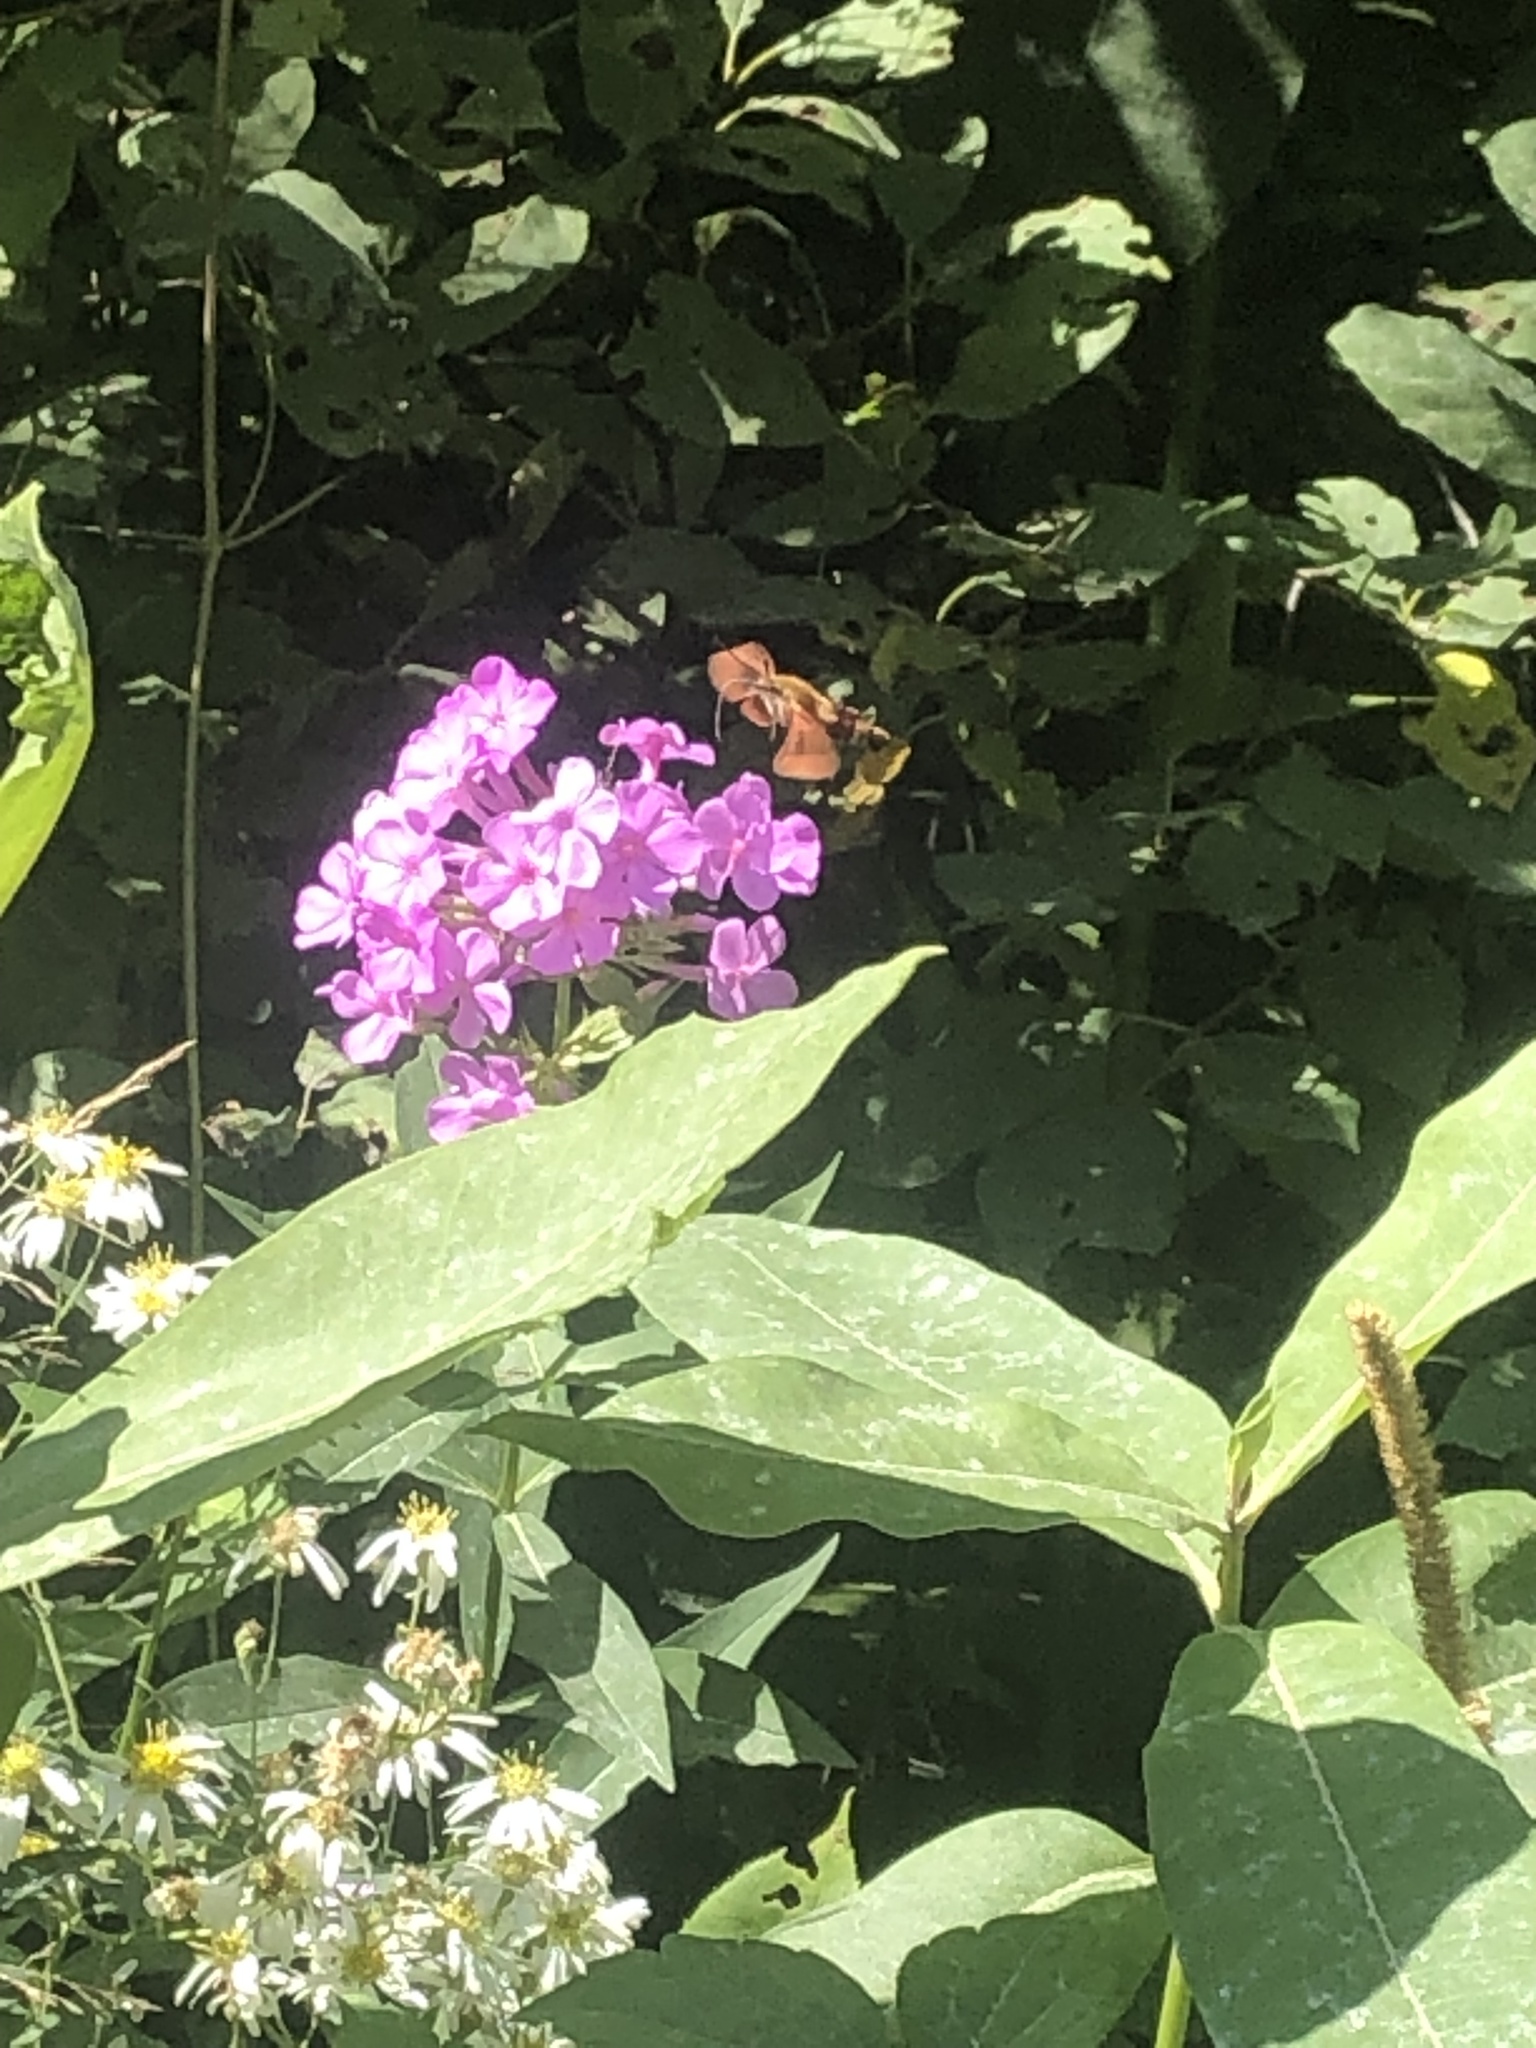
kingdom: Animalia
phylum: Arthropoda
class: Insecta
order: Lepidoptera
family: Sphingidae
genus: Hemaris
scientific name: Hemaris thysbe
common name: Common clear-wing
